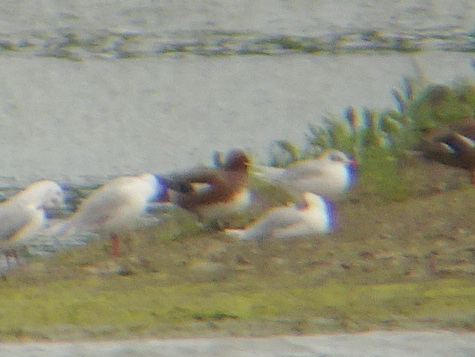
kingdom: Animalia
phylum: Chordata
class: Aves
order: Anseriformes
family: Anatidae
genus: Mareca
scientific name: Mareca penelope
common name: Eurasian wigeon
